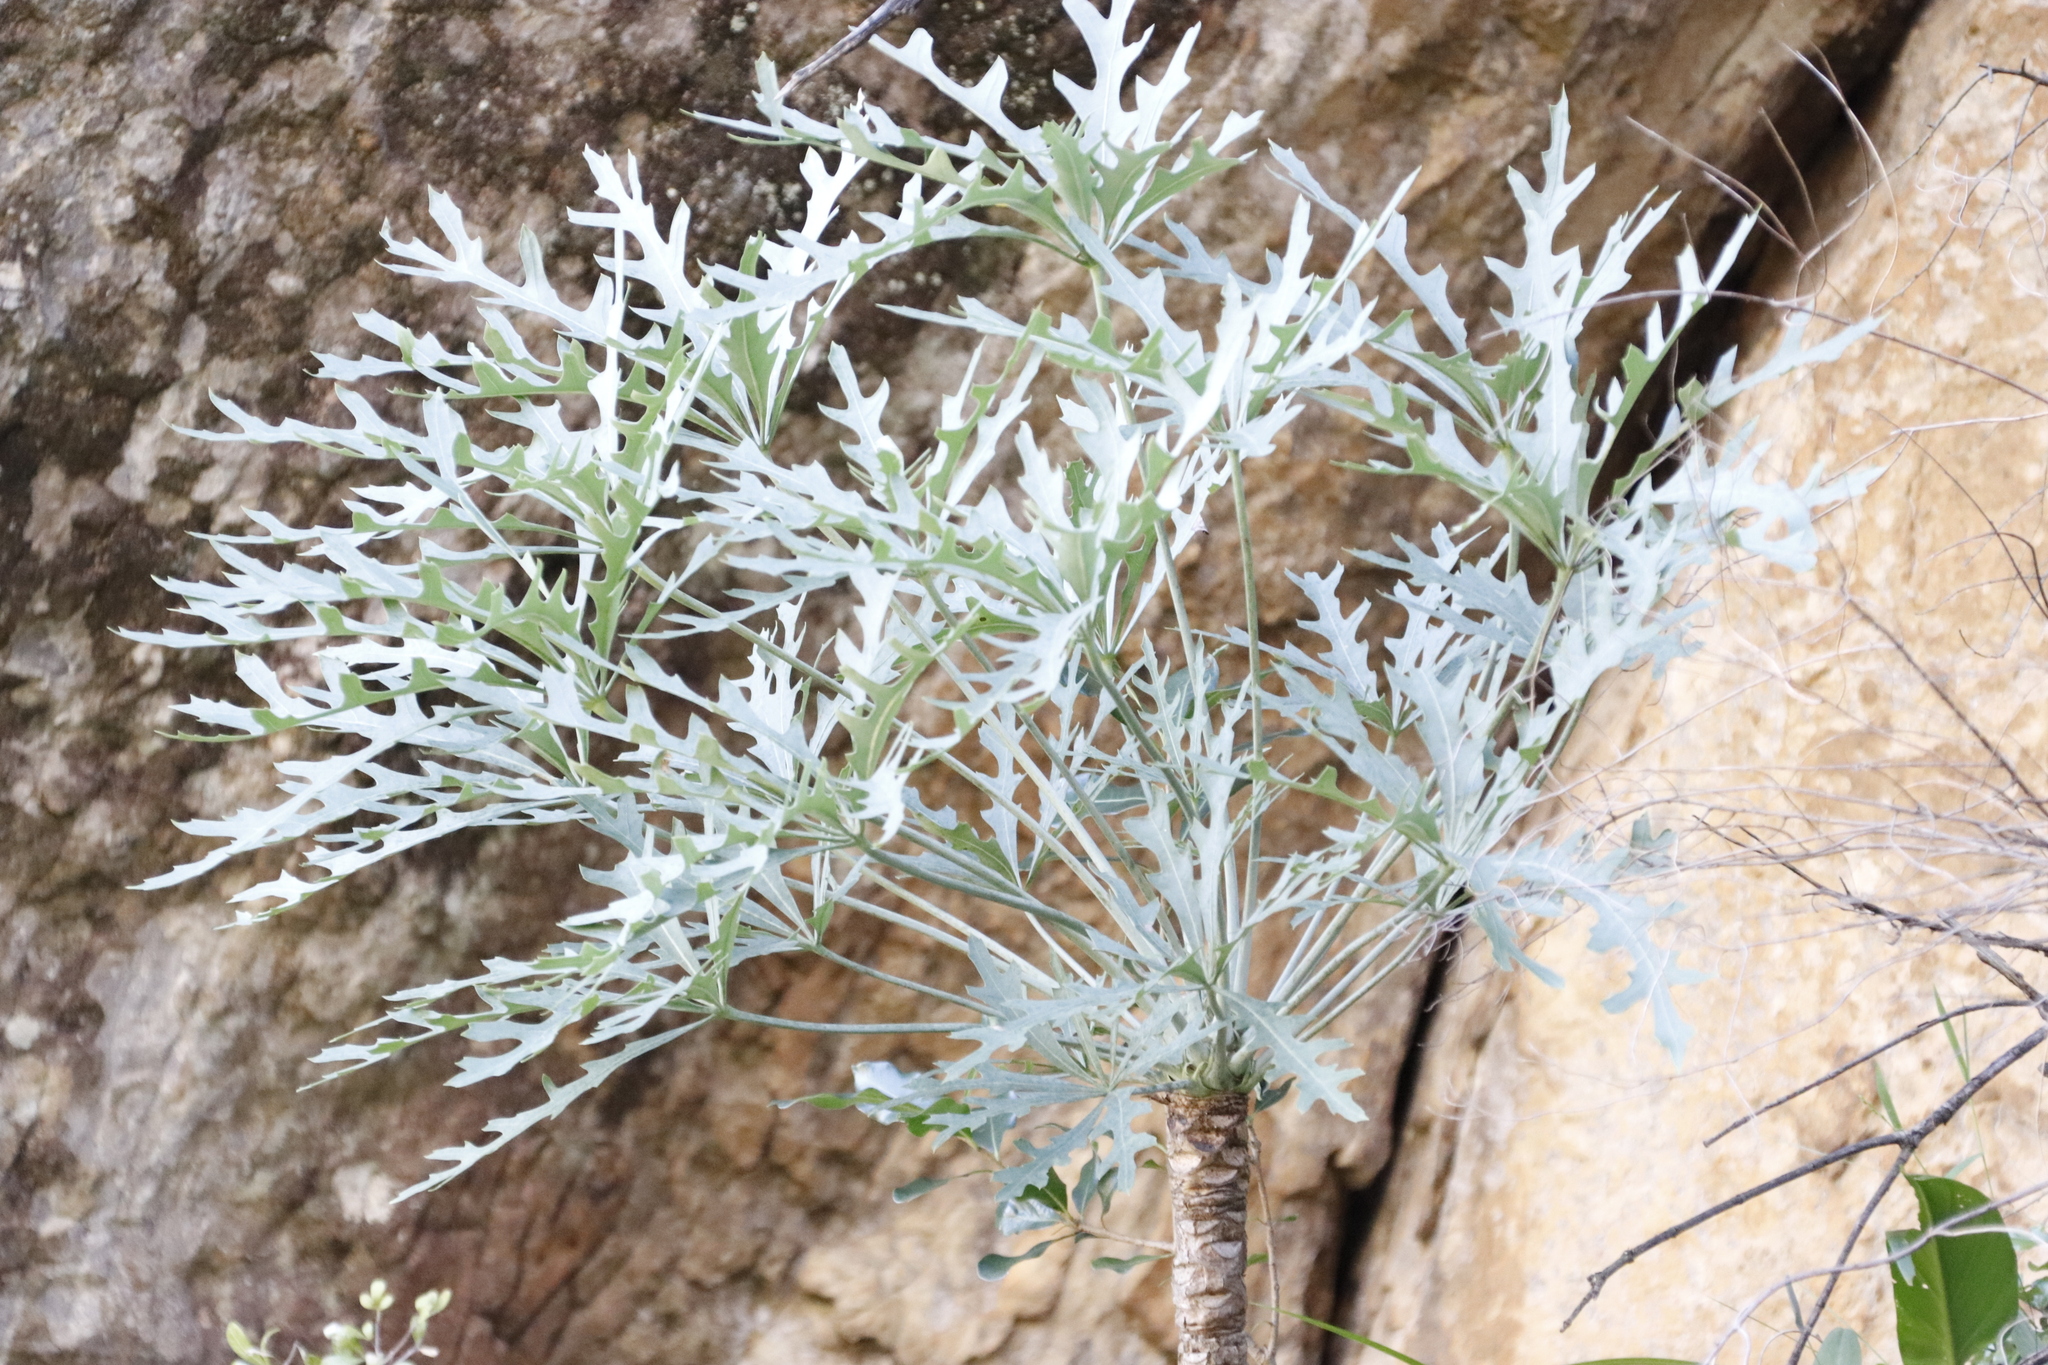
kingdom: Plantae
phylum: Tracheophyta
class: Magnoliopsida
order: Apiales
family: Araliaceae
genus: Cussonia
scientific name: Cussonia paniculata
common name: Cabbagetree
